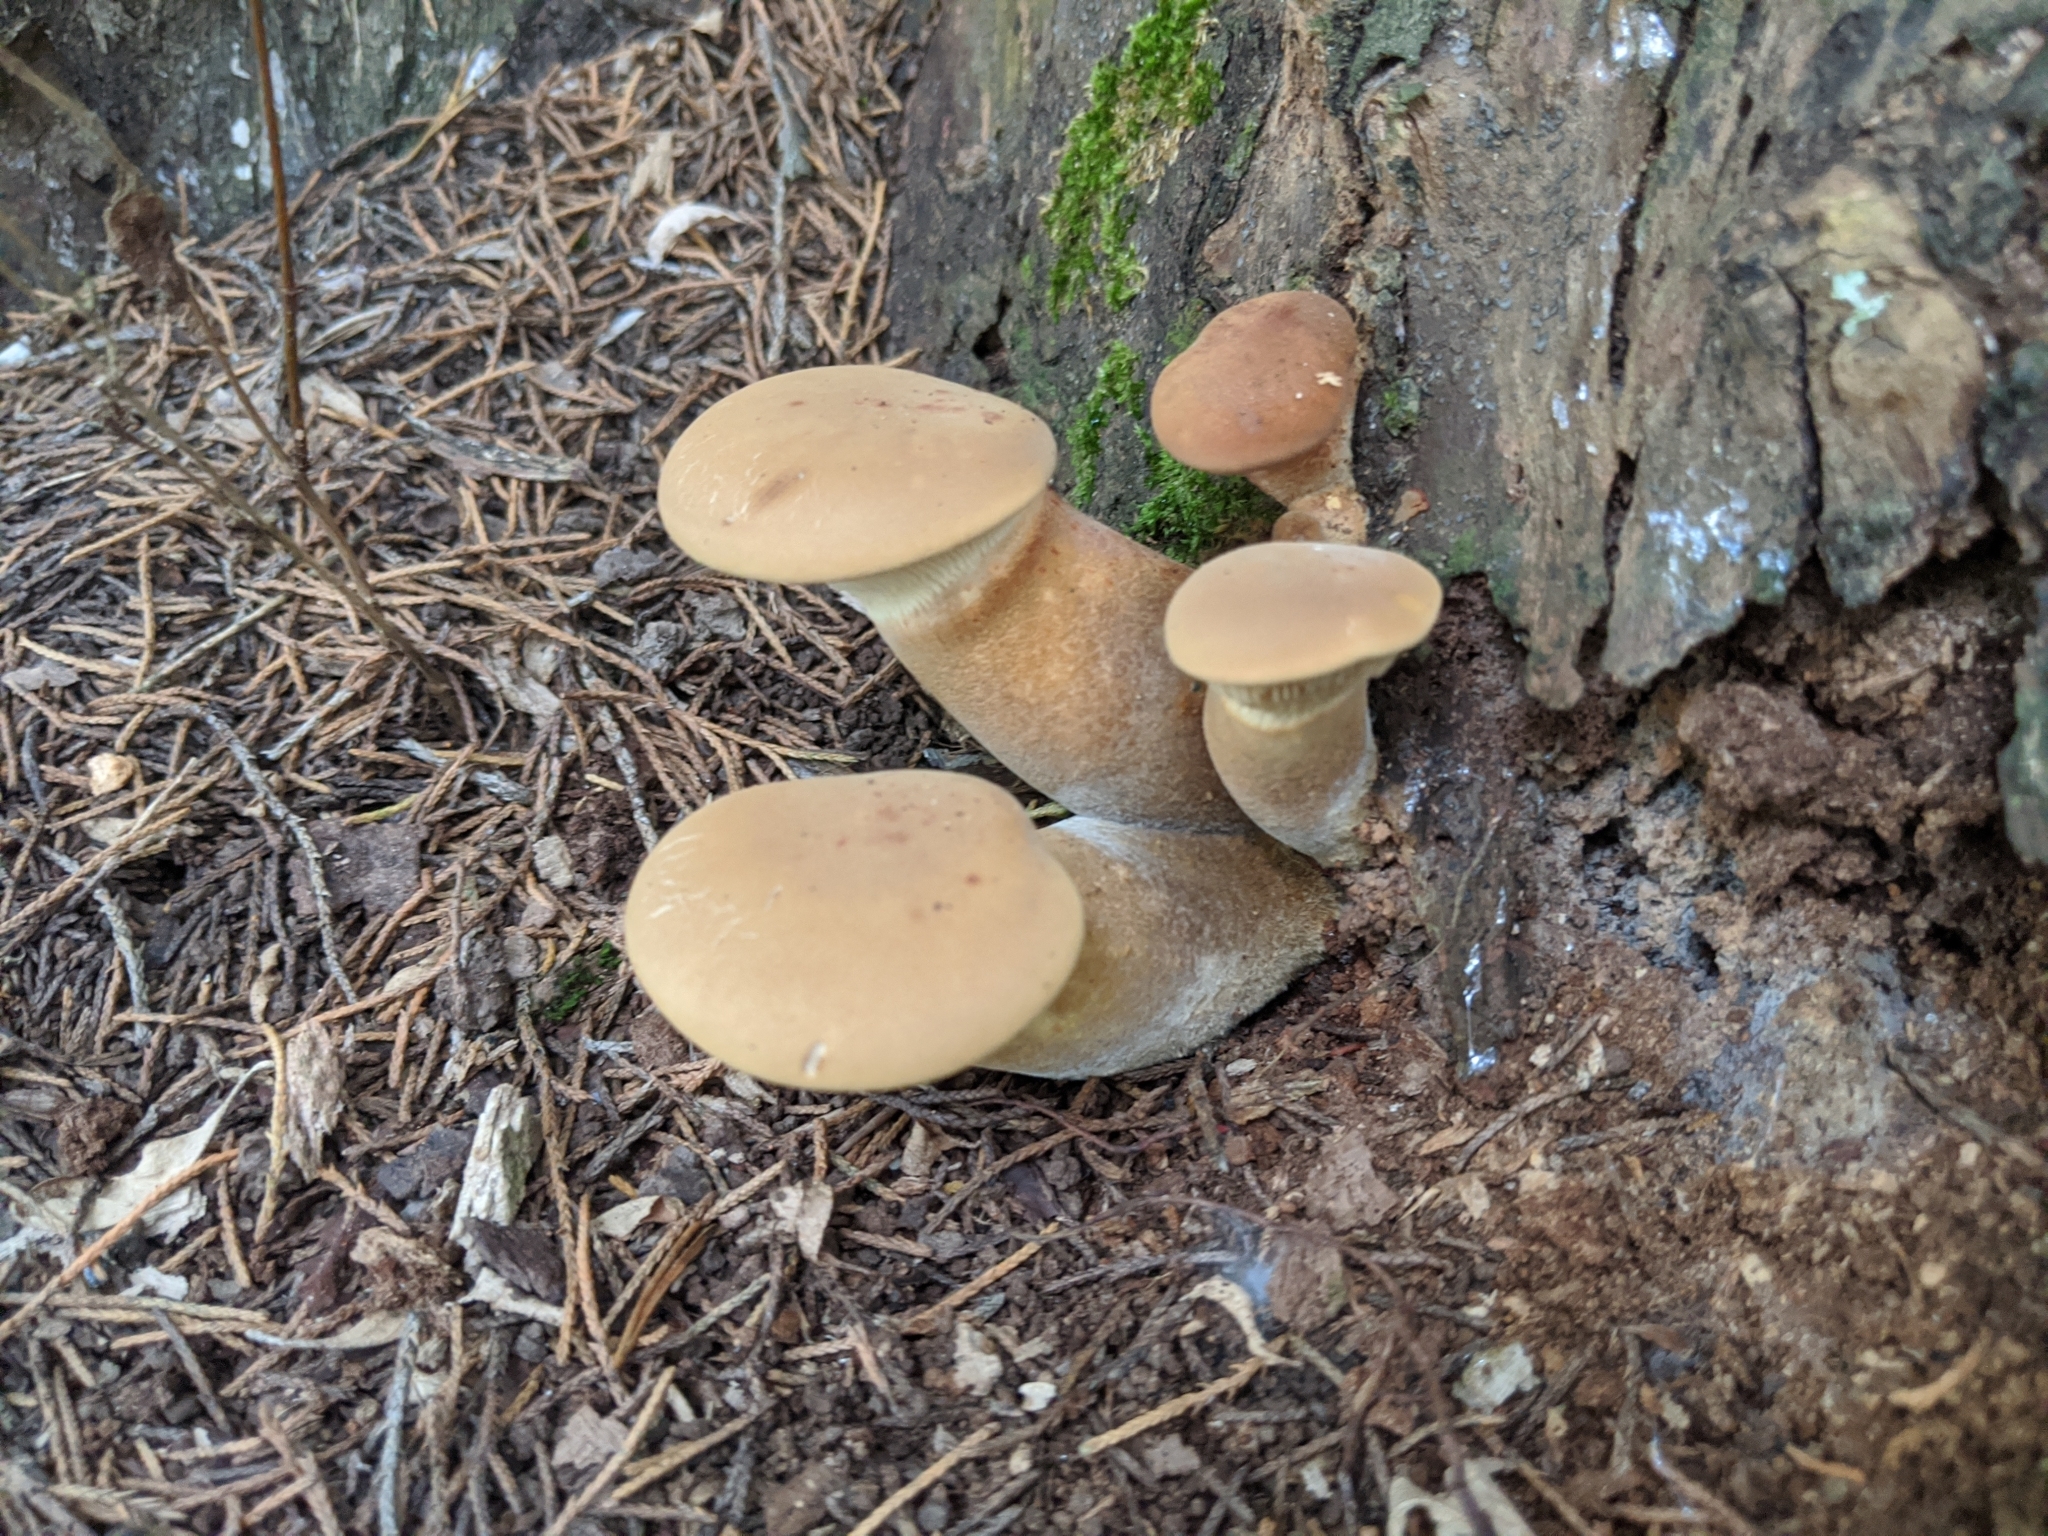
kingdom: Fungi
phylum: Basidiomycota
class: Agaricomycetes
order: Boletales
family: Tapinellaceae
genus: Tapinella
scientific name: Tapinella atrotomentosa
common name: Velvet rollrim
